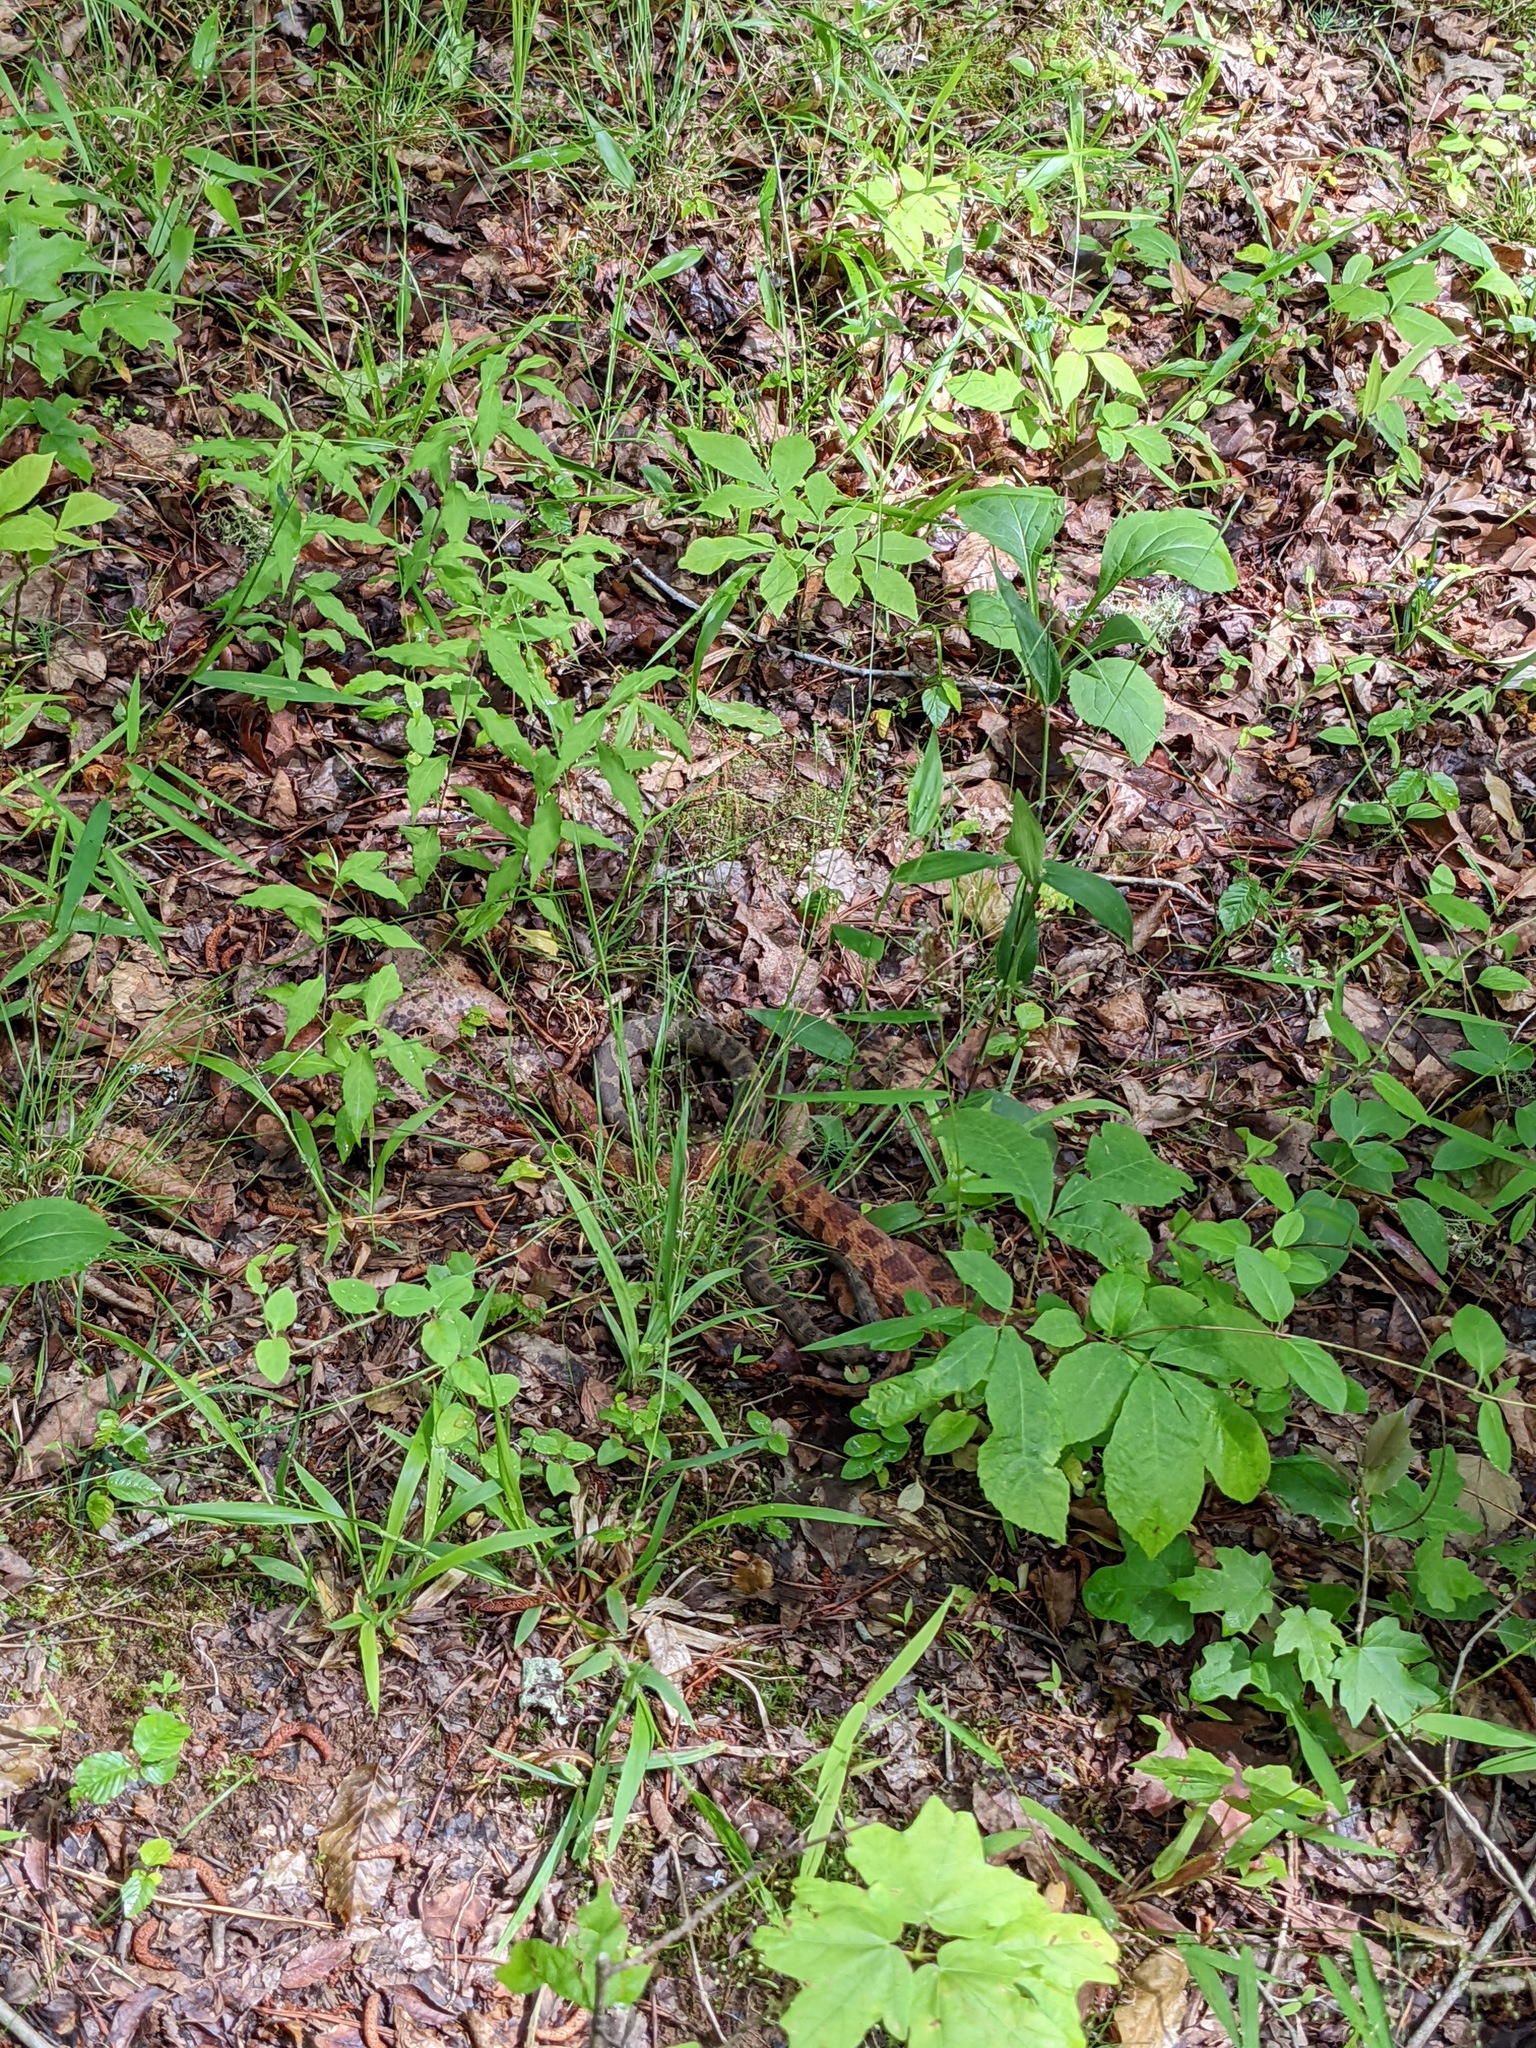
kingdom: Animalia
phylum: Chordata
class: Squamata
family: Colubridae
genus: Nerodia
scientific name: Nerodia sipedon
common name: Northern water snake
